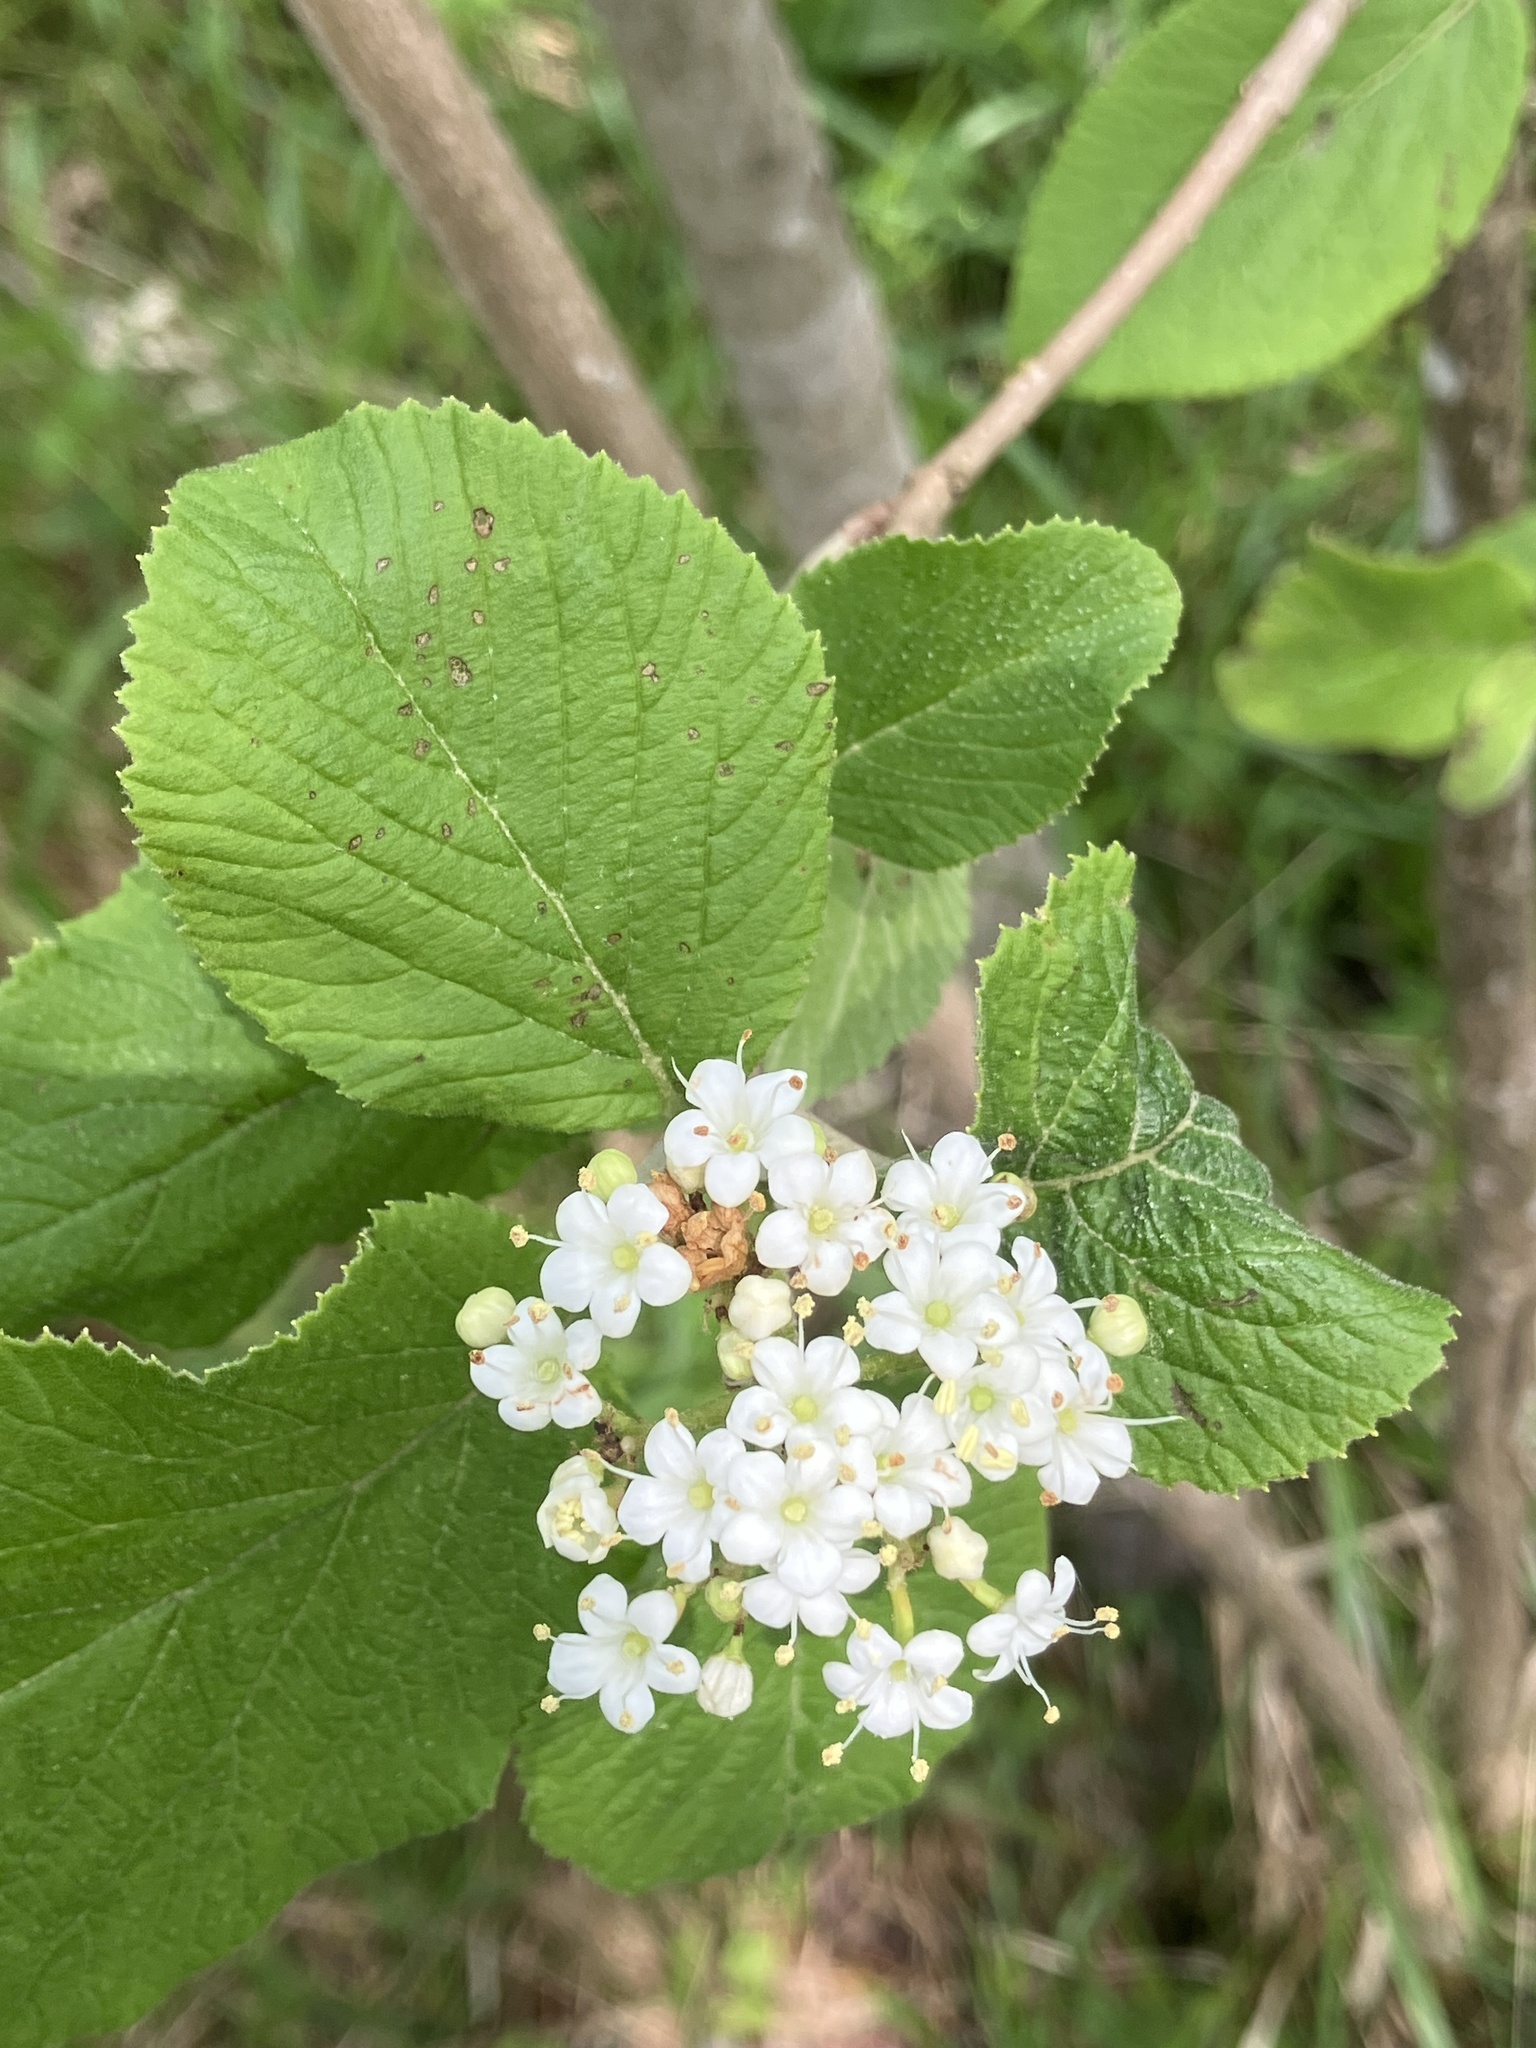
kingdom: Plantae
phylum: Tracheophyta
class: Magnoliopsida
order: Dipsacales
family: Viburnaceae
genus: Viburnum
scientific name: Viburnum lantana
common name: Wayfaring tree
